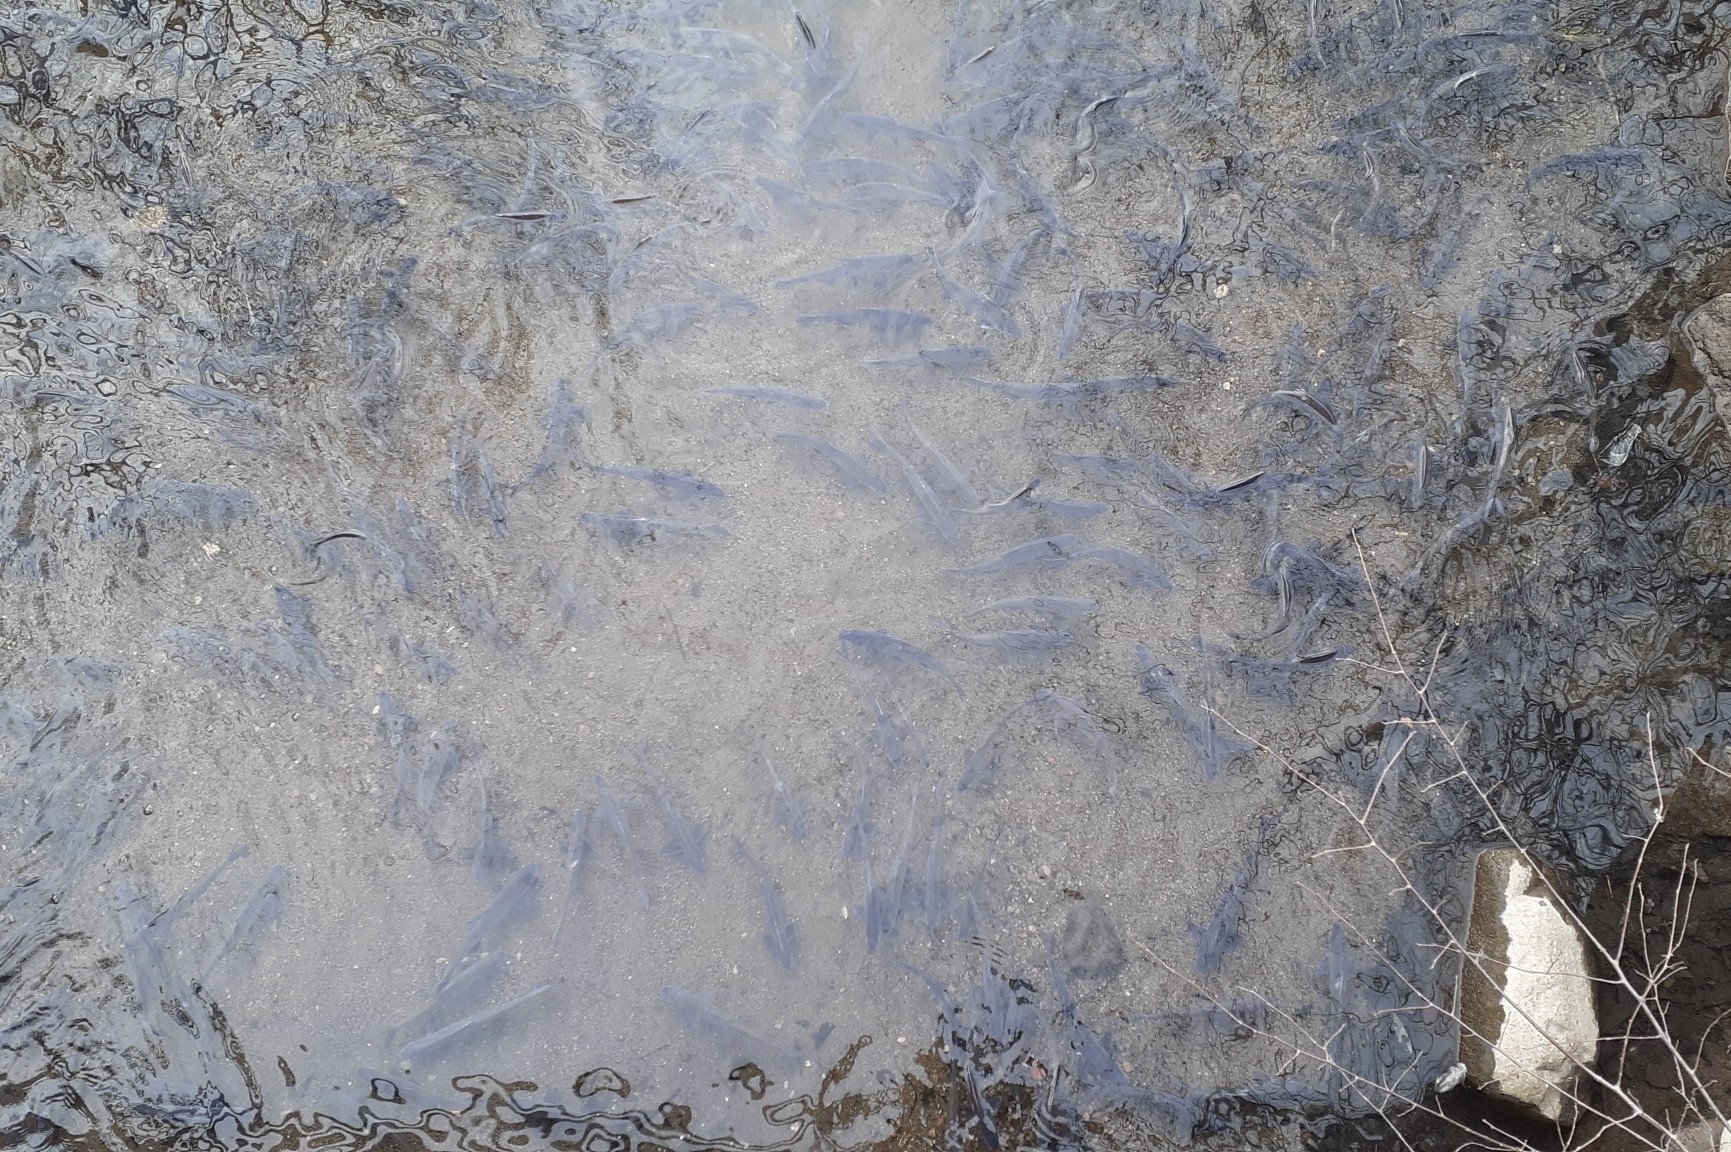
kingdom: Animalia
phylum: Chordata
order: Clupeiformes
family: Clupeidae
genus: Dorosoma
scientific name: Dorosoma cepedianum
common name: Gizzard shad
